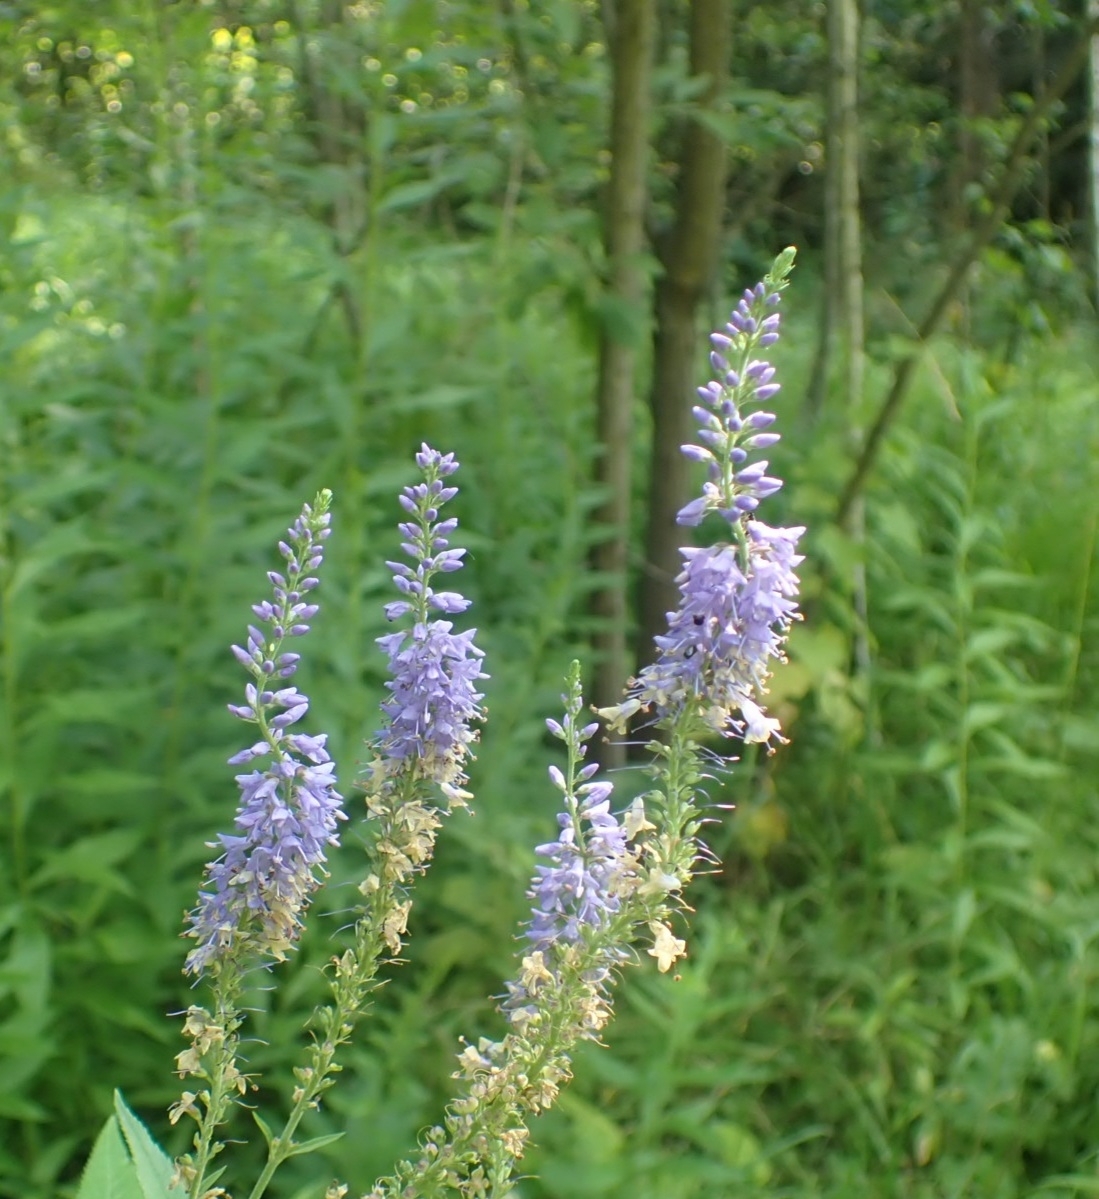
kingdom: Plantae
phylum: Tracheophyta
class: Magnoliopsida
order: Lamiales
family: Plantaginaceae
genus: Veronica
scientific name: Veronica longifolia
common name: Garden speedwell
